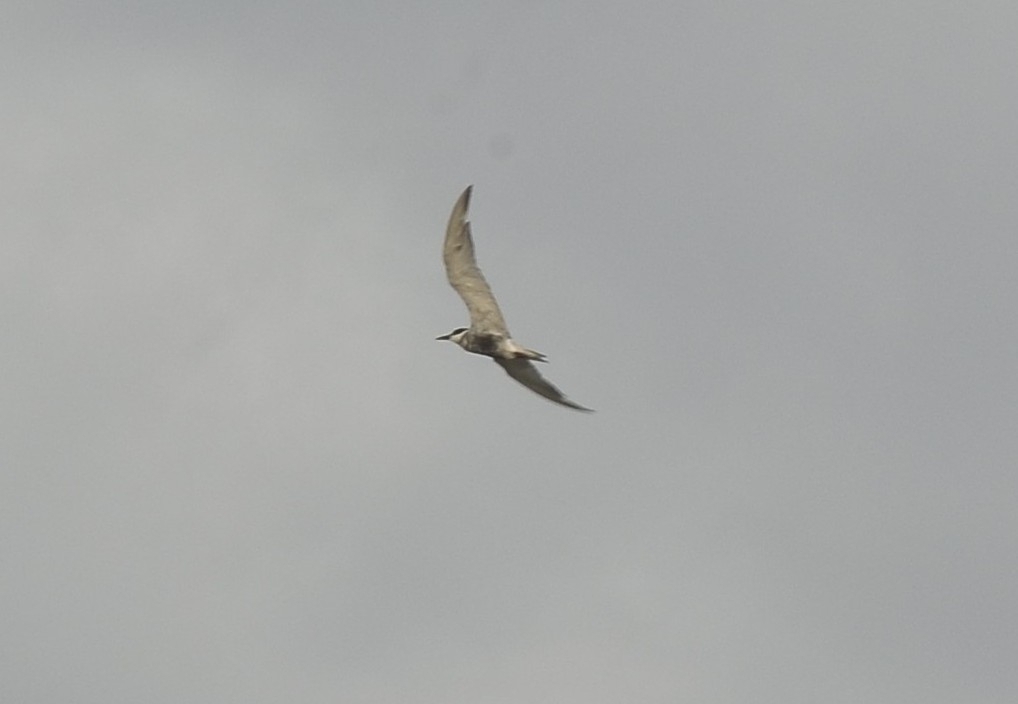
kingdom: Animalia
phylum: Chordata
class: Aves
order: Charadriiformes
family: Laridae
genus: Chlidonias
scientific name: Chlidonias hybrida
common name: Whiskered tern
